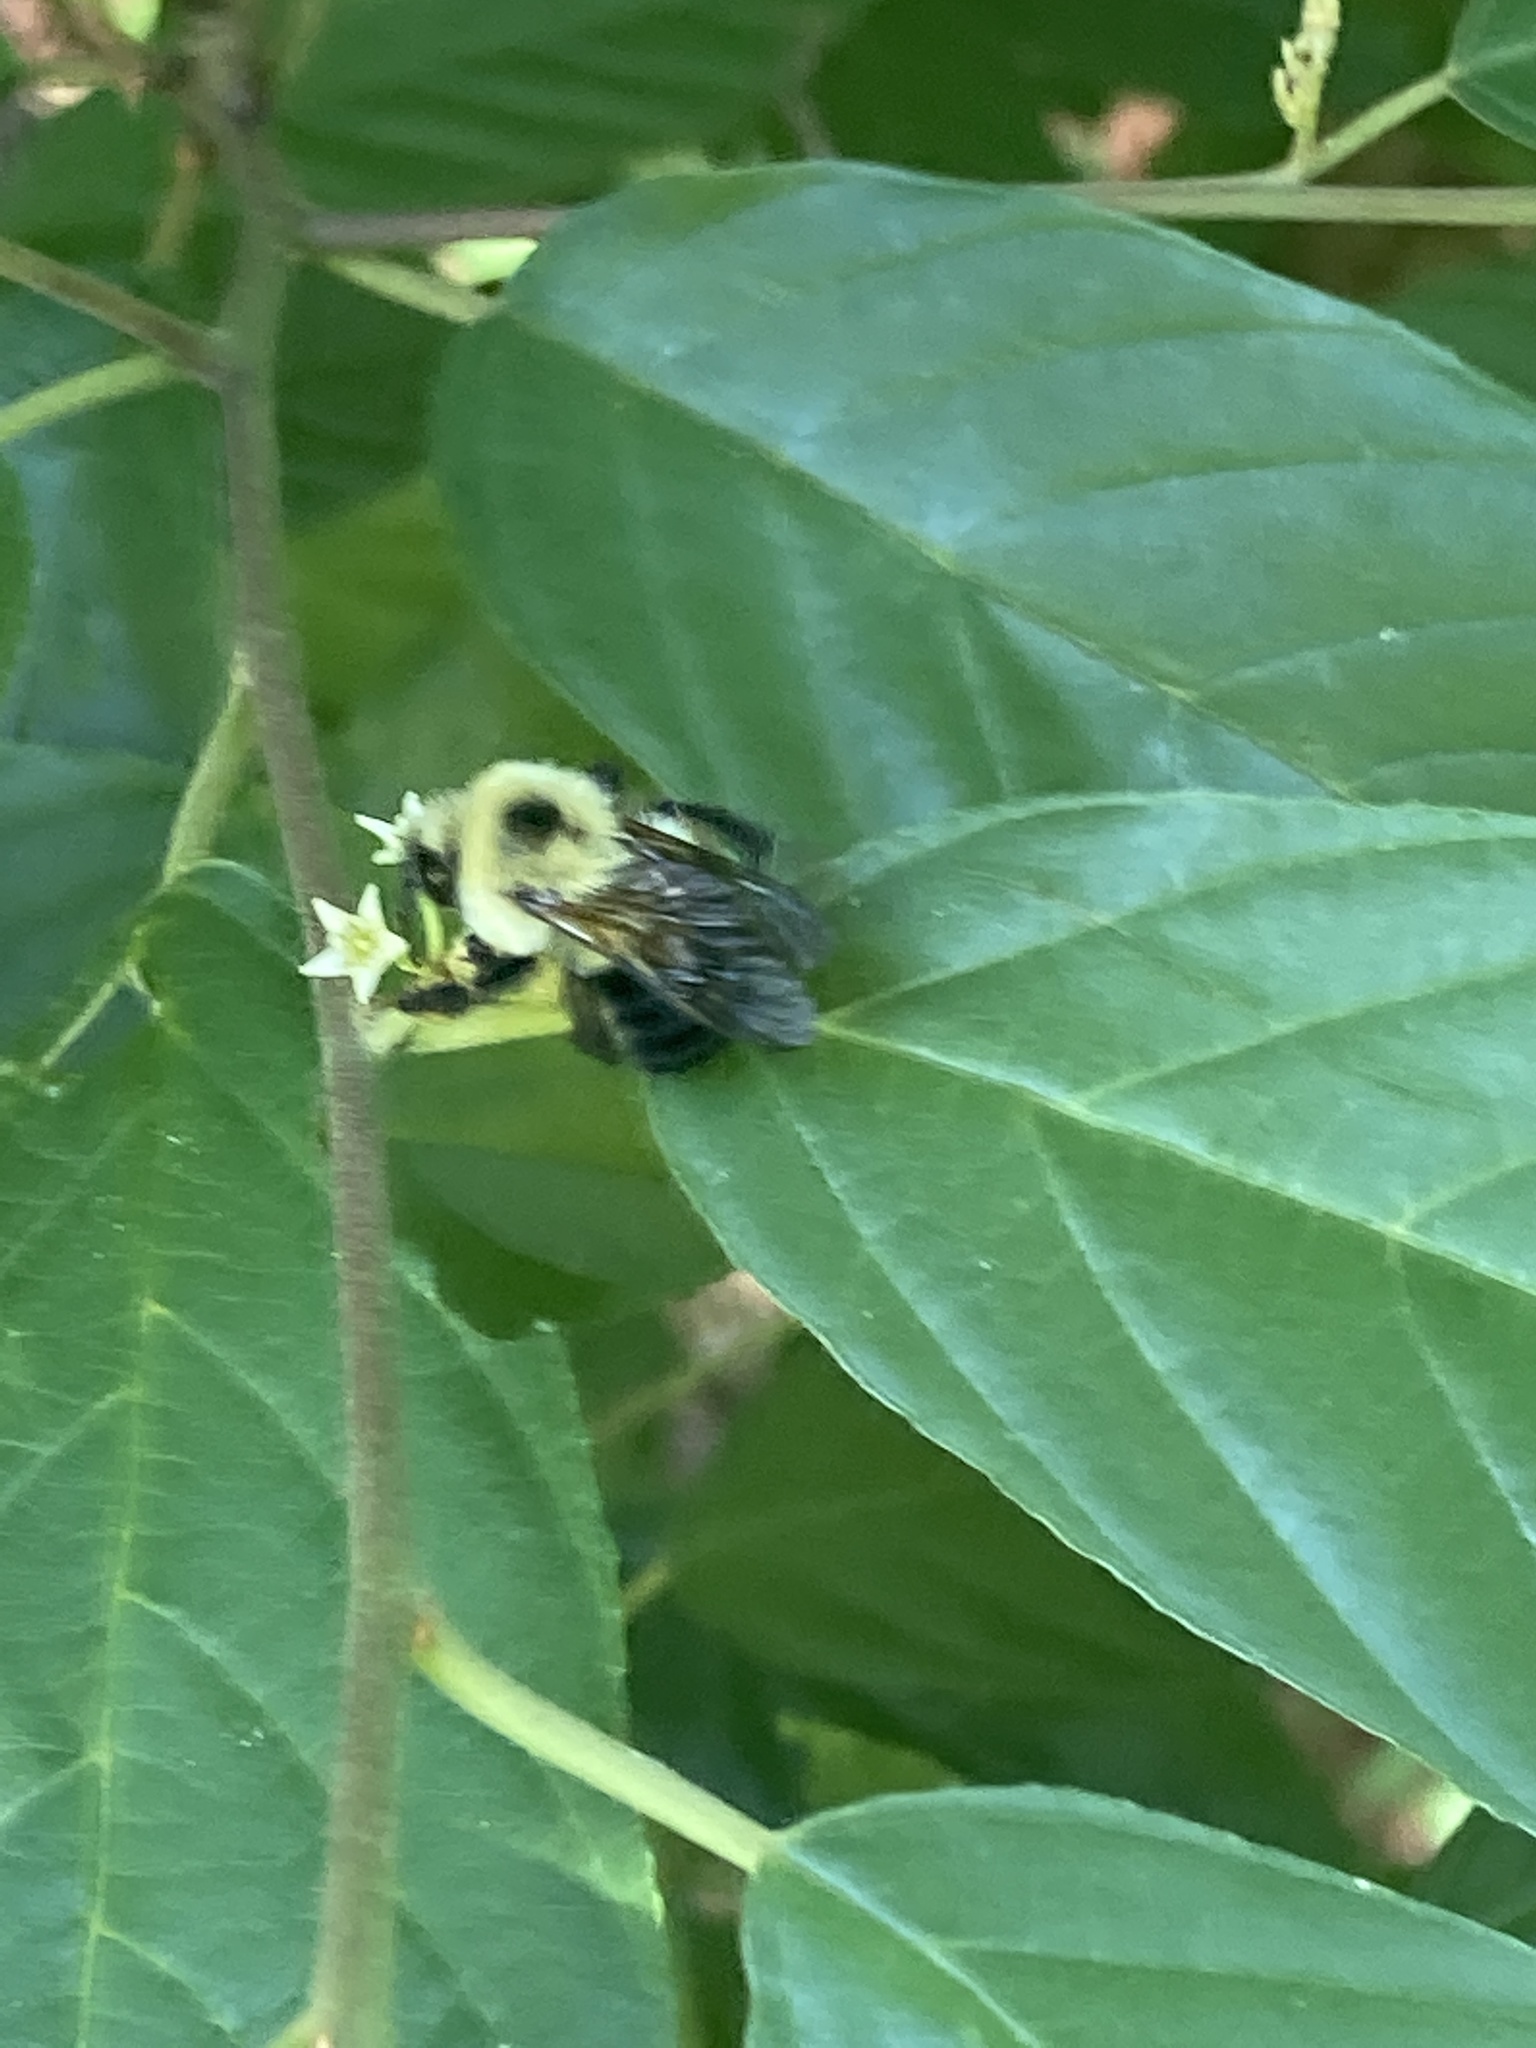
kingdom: Animalia
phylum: Arthropoda
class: Insecta
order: Hymenoptera
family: Apidae
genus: Bombus
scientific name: Bombus bimaculatus
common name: Two-spotted bumble bee
